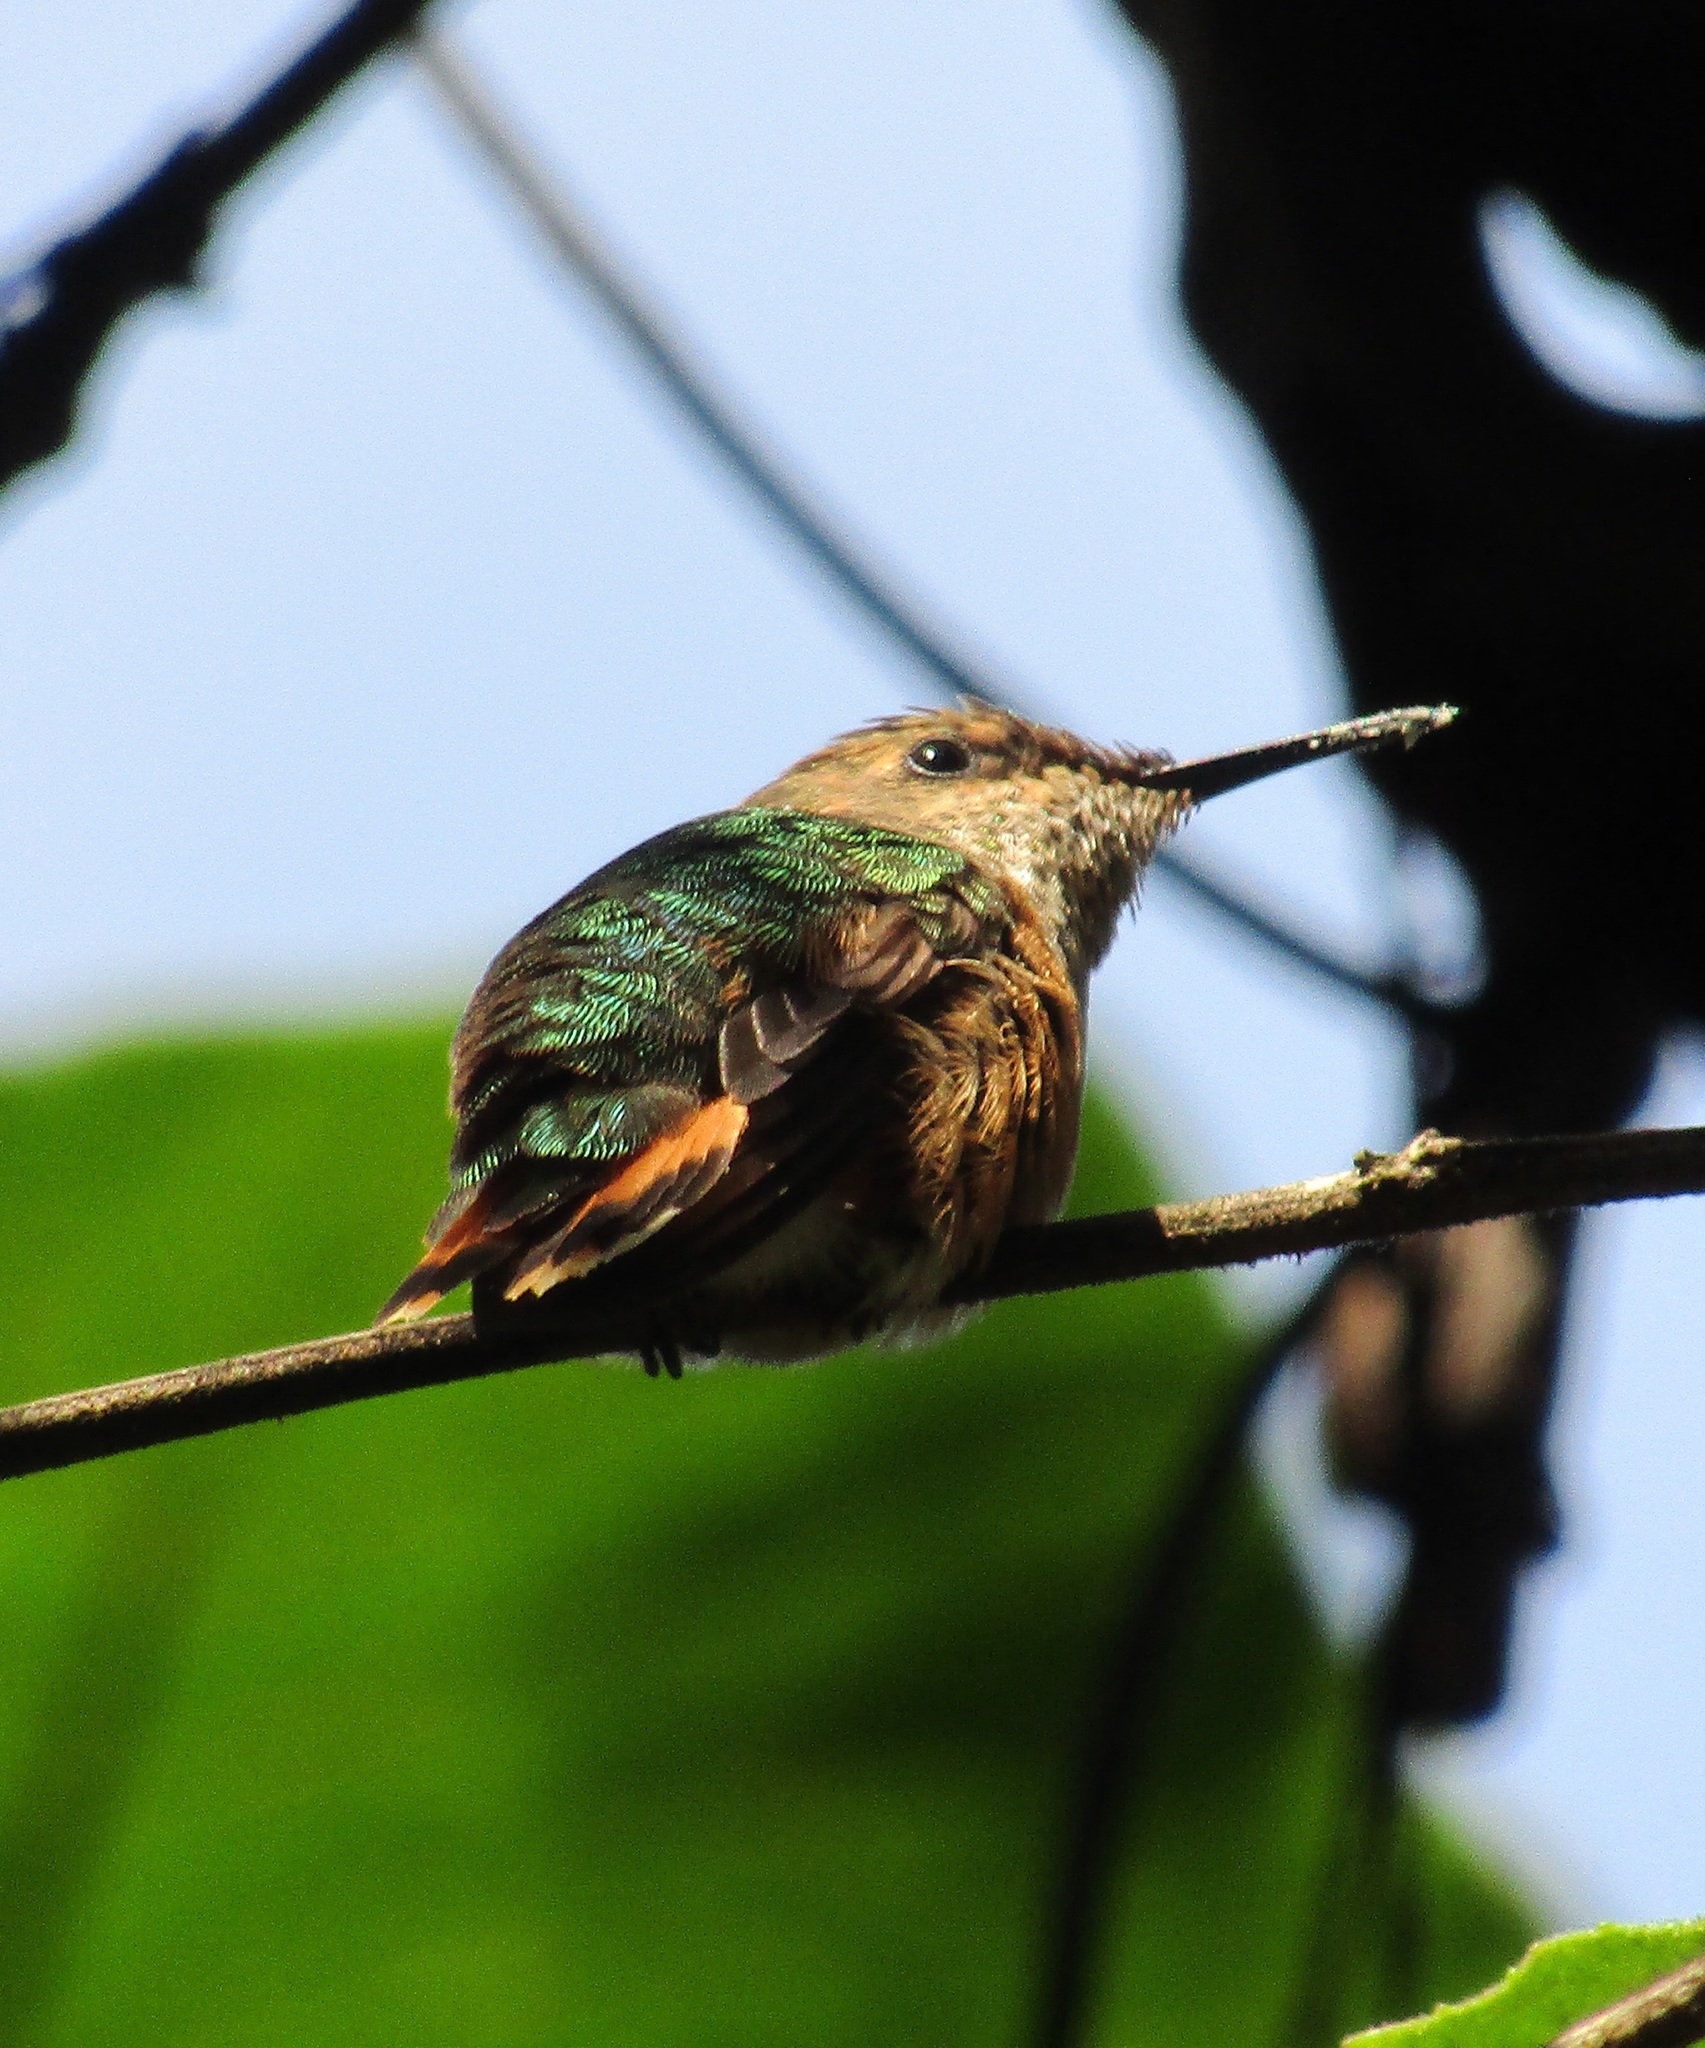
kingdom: Animalia
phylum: Chordata
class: Aves
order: Apodiformes
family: Trochilidae
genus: Selasphorus
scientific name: Selasphorus heloisa
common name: Bumblebee hummingbird
